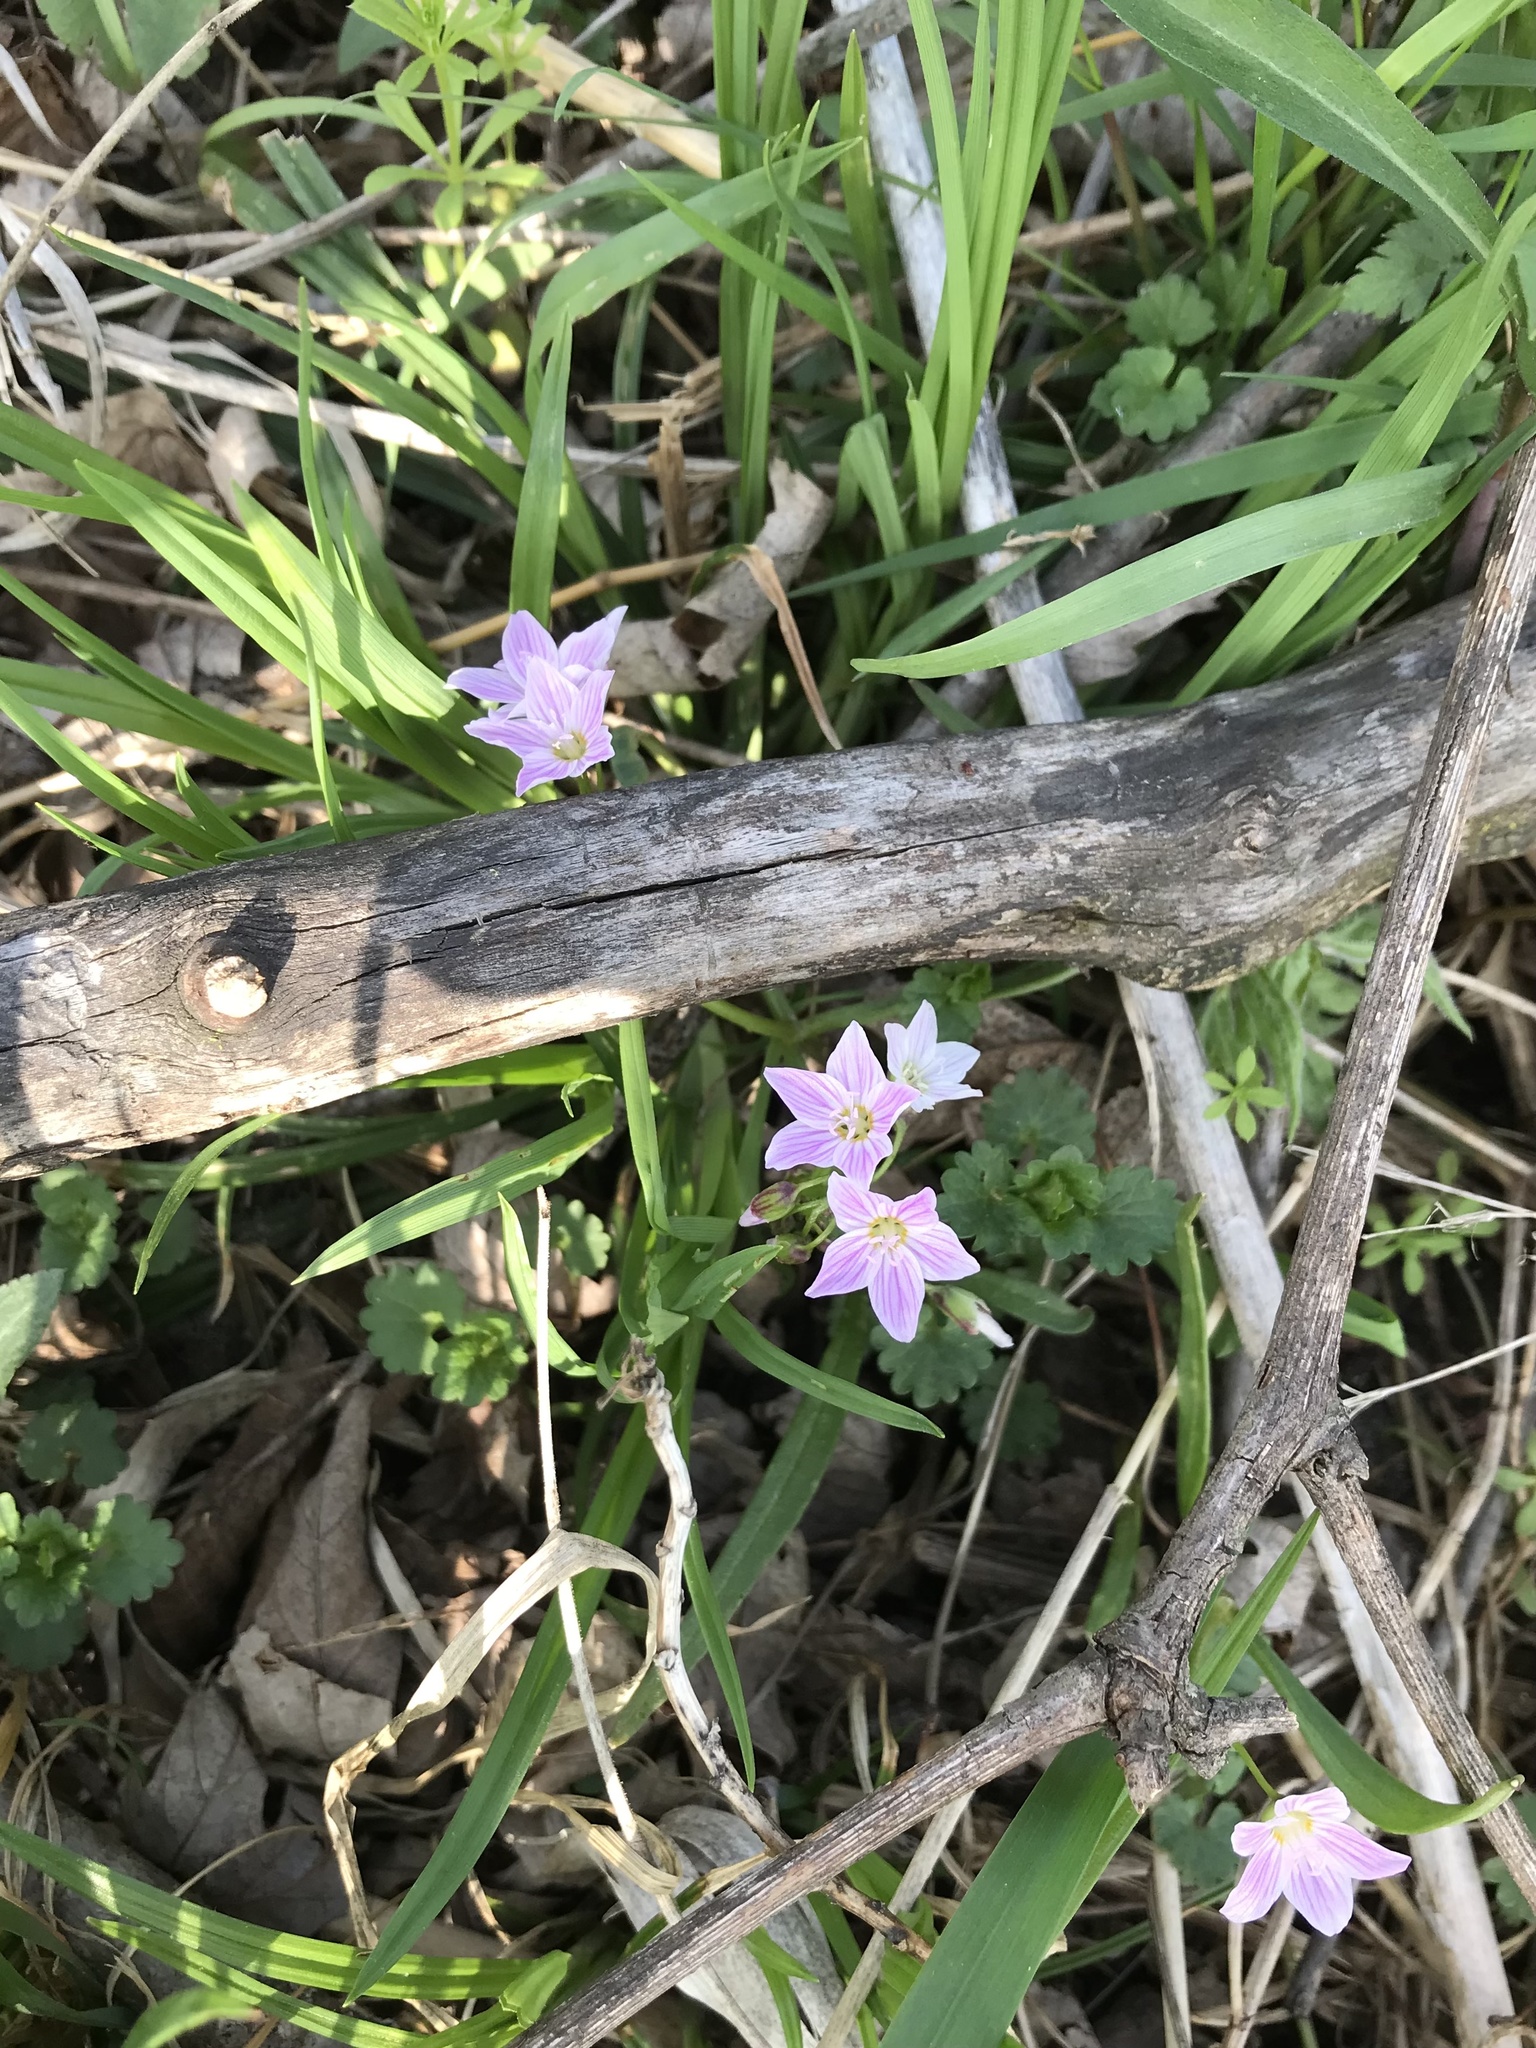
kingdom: Plantae
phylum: Tracheophyta
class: Magnoliopsida
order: Caryophyllales
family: Montiaceae
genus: Claytonia
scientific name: Claytonia virginica
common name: Virginia springbeauty
